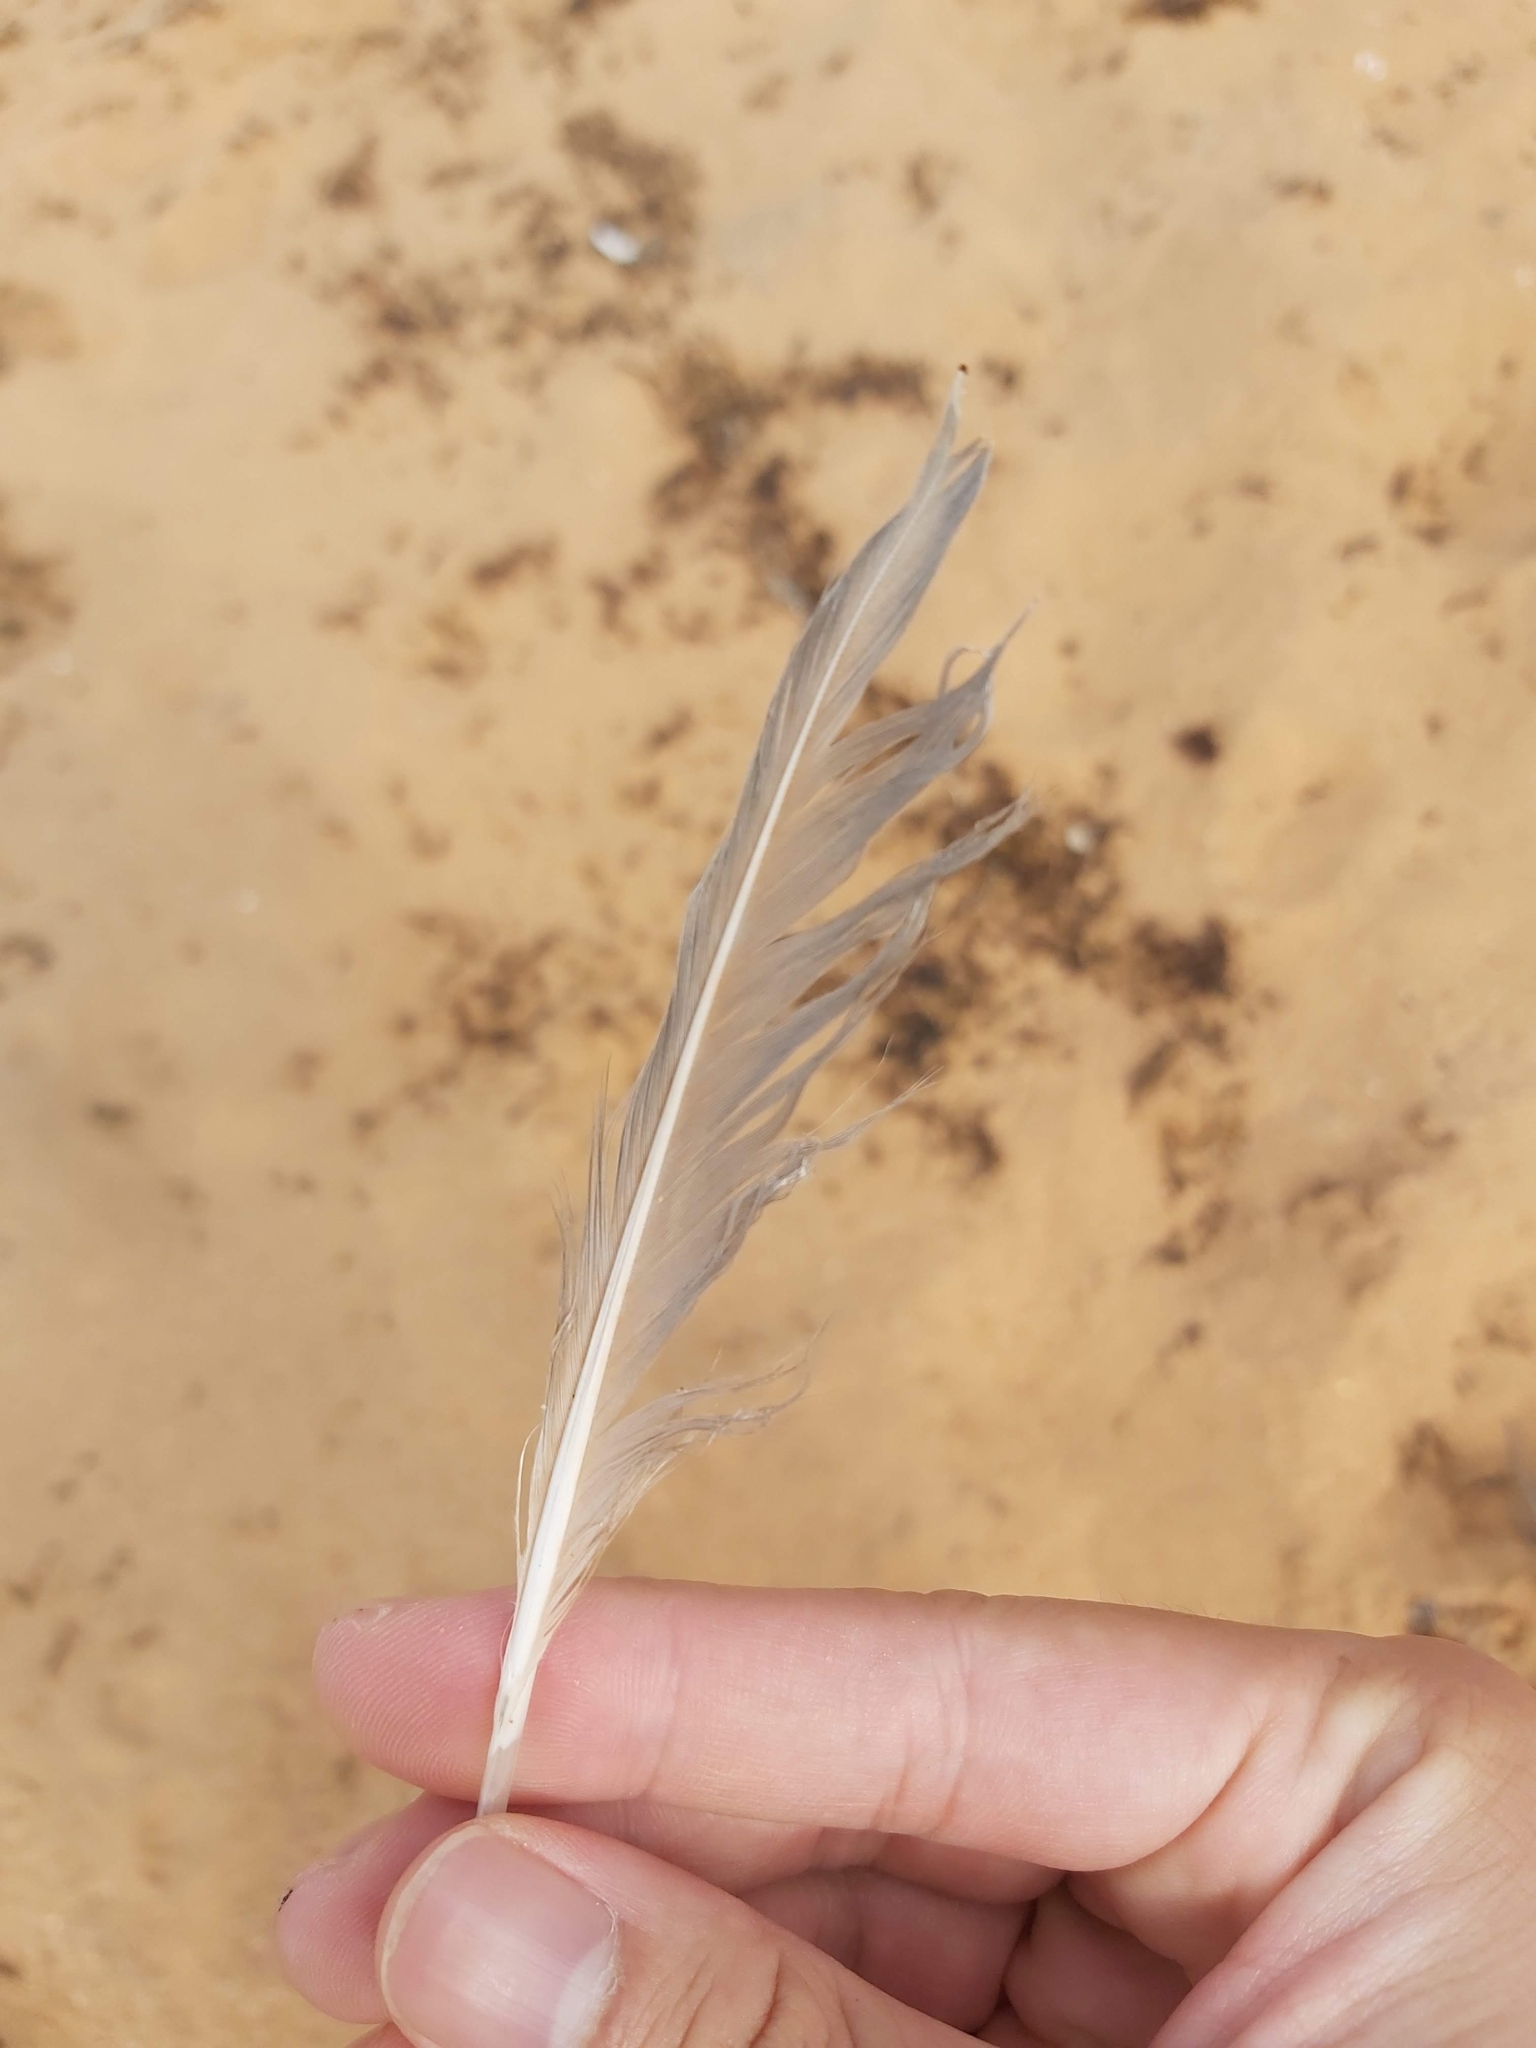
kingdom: Animalia
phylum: Chordata
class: Aves
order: Charadriiformes
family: Laridae
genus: Chroicocephalus
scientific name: Chroicocephalus novaehollandiae
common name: Silver gull
